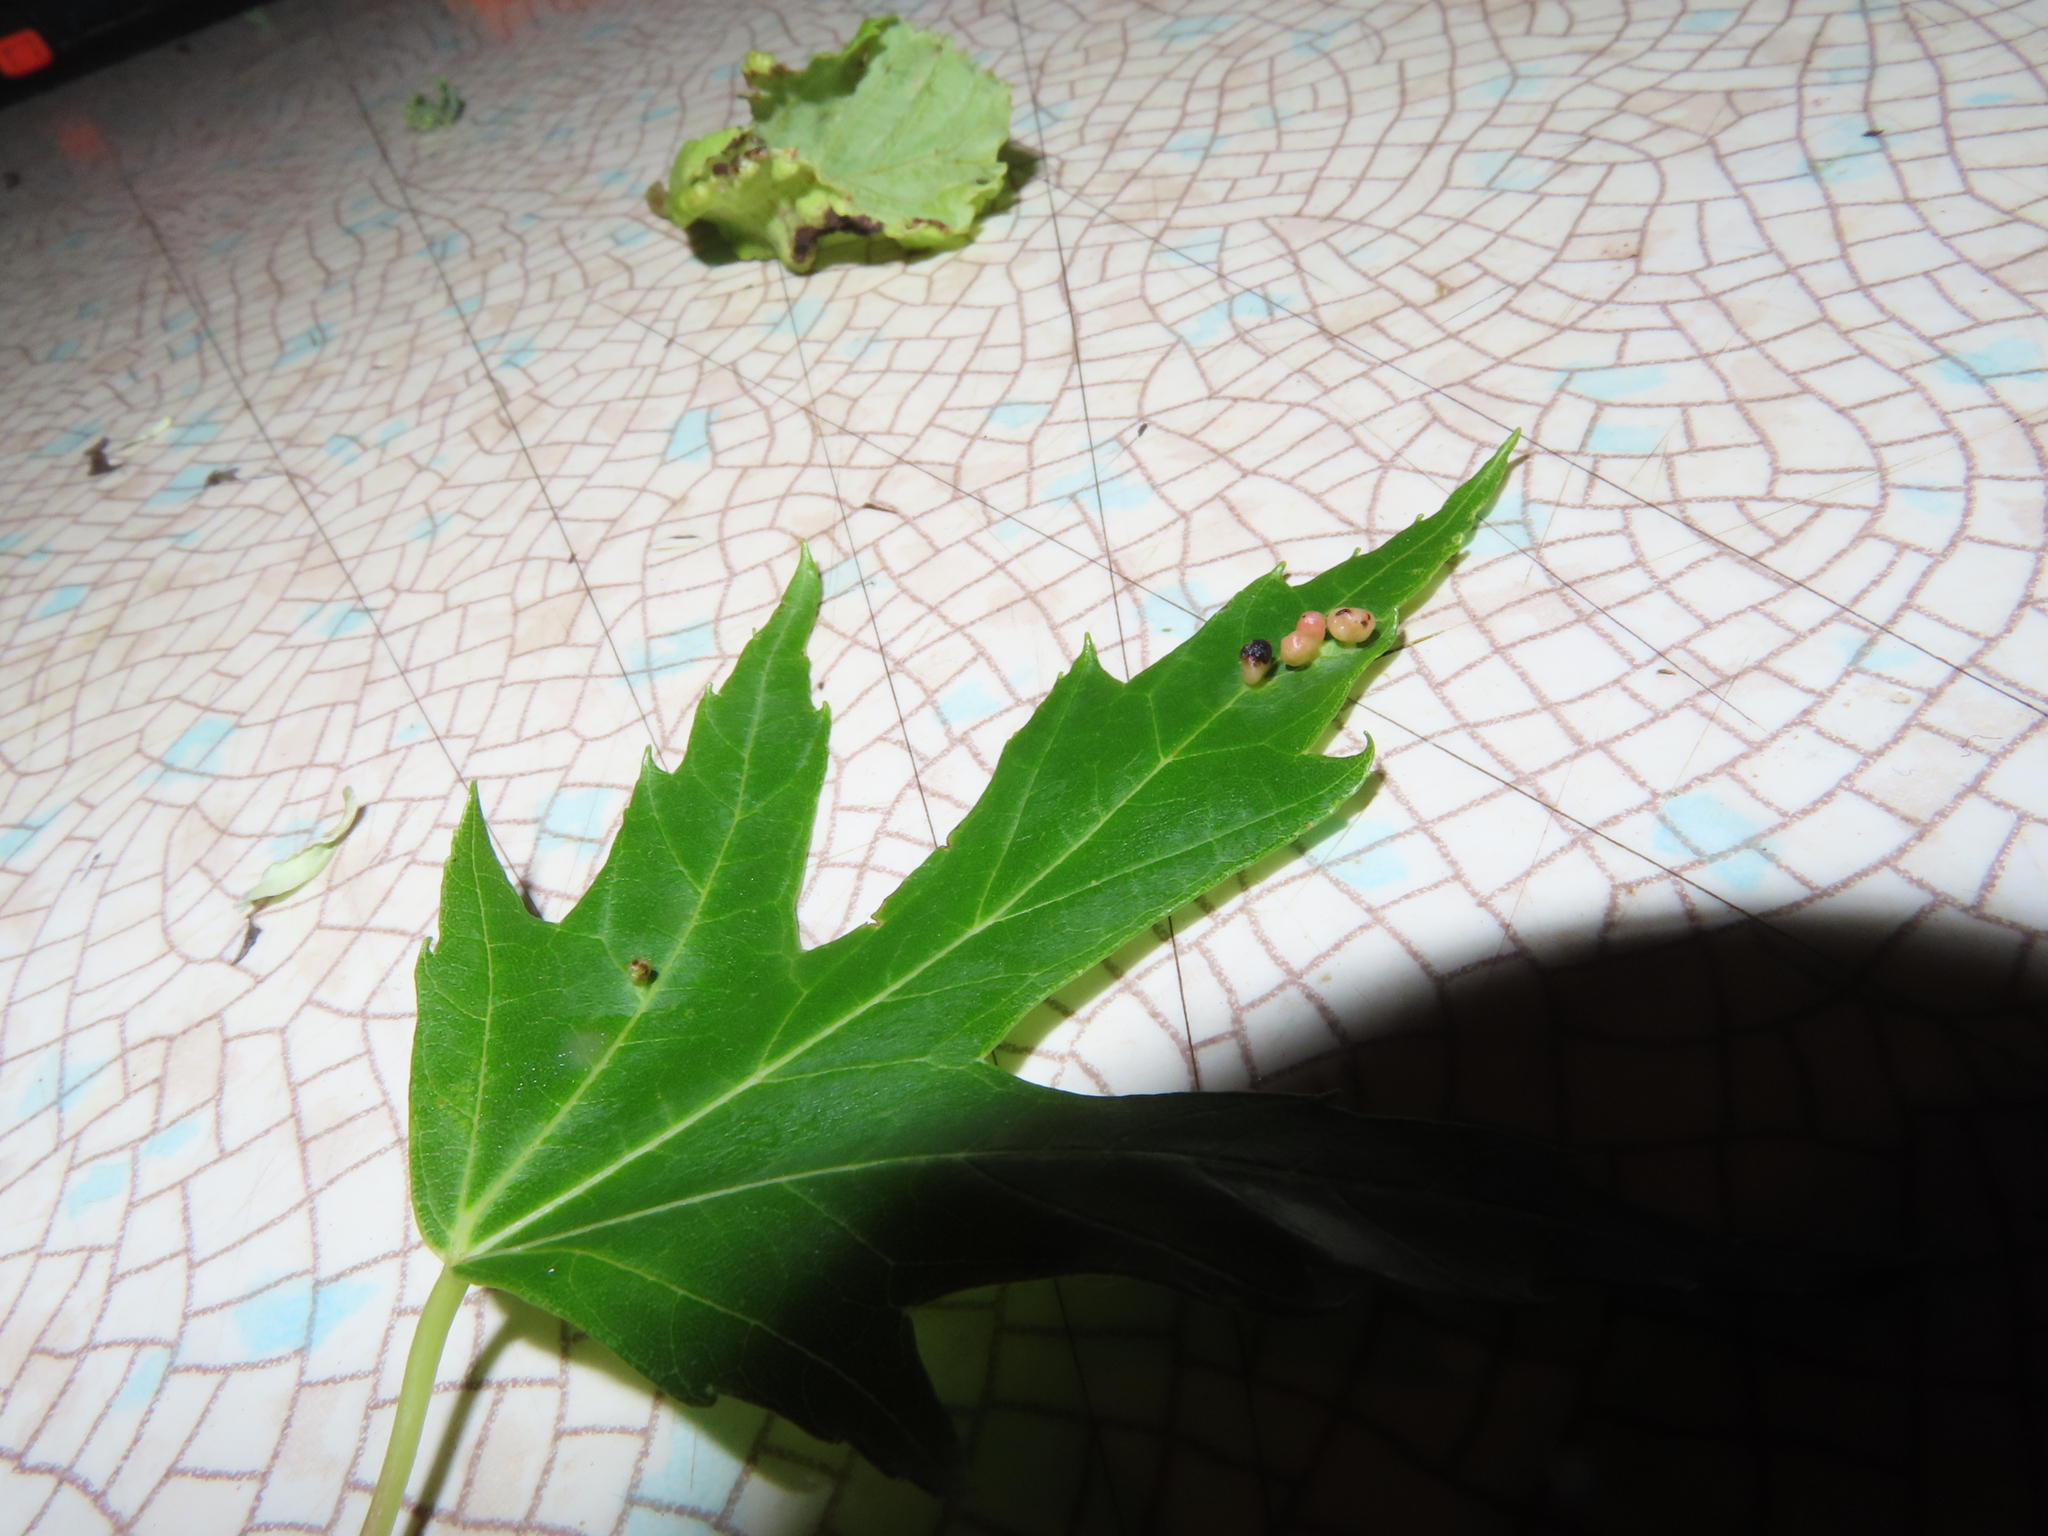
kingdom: Animalia
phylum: Arthropoda
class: Arachnida
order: Trombidiformes
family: Eriophyidae
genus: Vasates
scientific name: Vasates quadripedes
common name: Maple bladder gall mite
